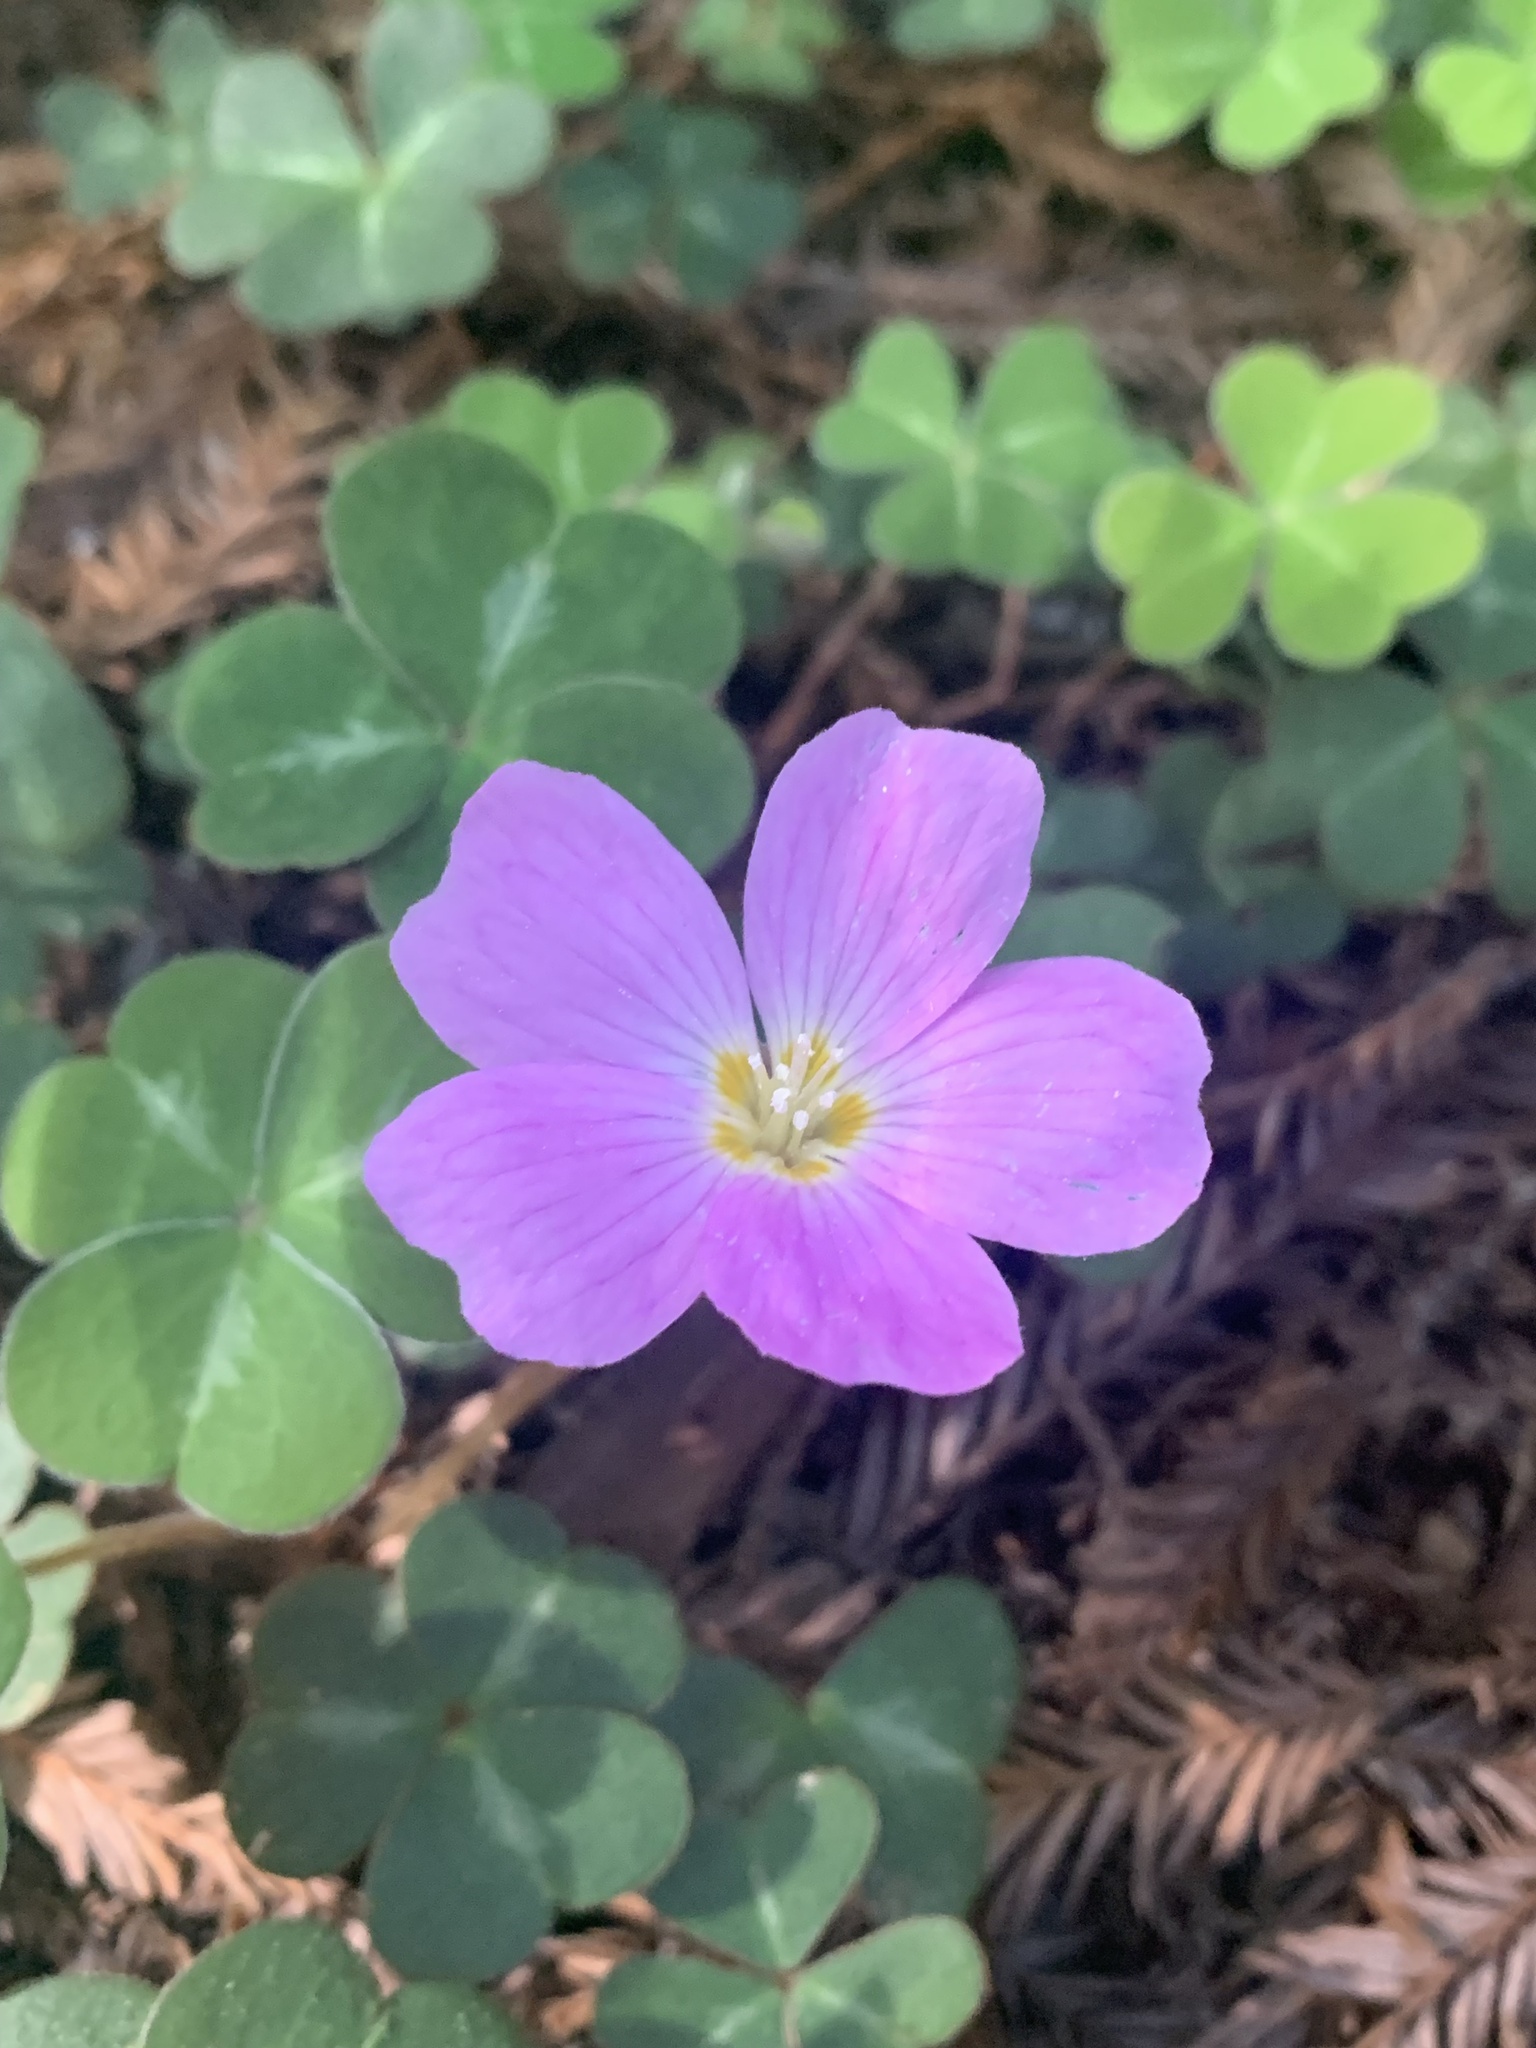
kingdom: Plantae
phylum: Tracheophyta
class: Magnoliopsida
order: Oxalidales
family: Oxalidaceae
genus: Oxalis
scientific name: Oxalis oregana
